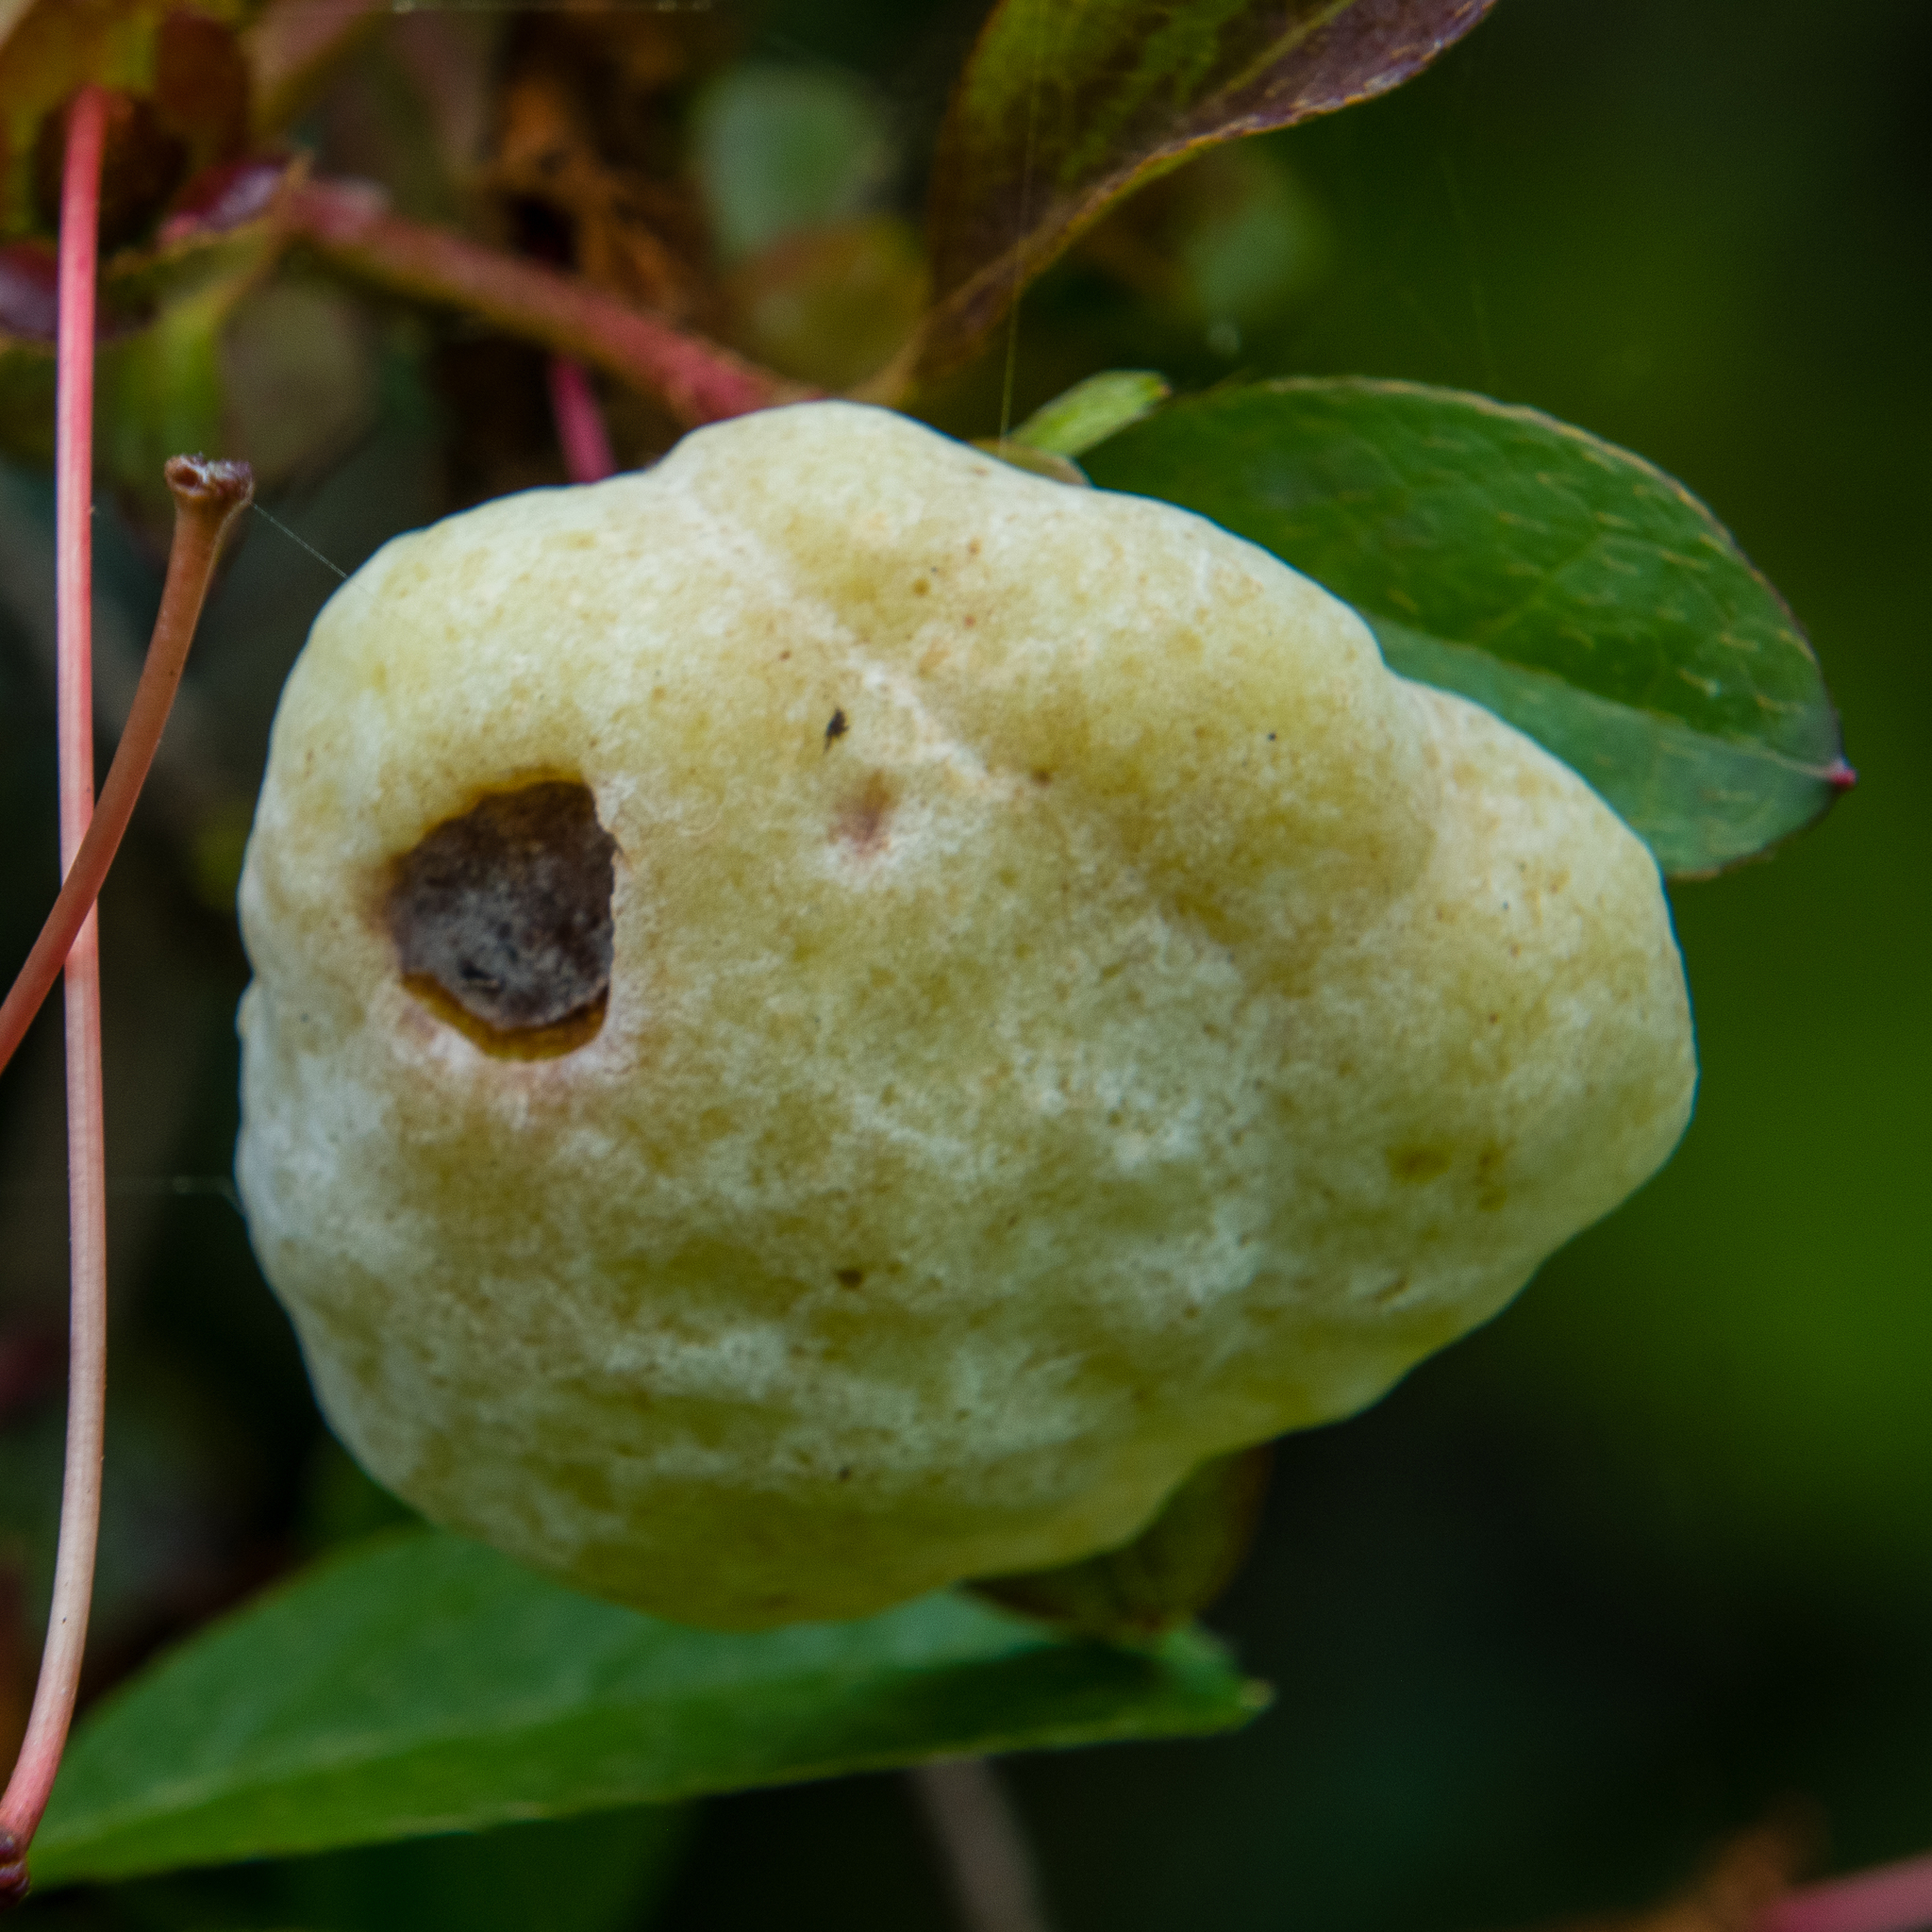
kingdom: Fungi
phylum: Basidiomycota
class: Exobasidiomycetes
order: Exobasidiales
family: Exobasidiaceae
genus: Exobasidium
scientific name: Exobasidium rhododendri
